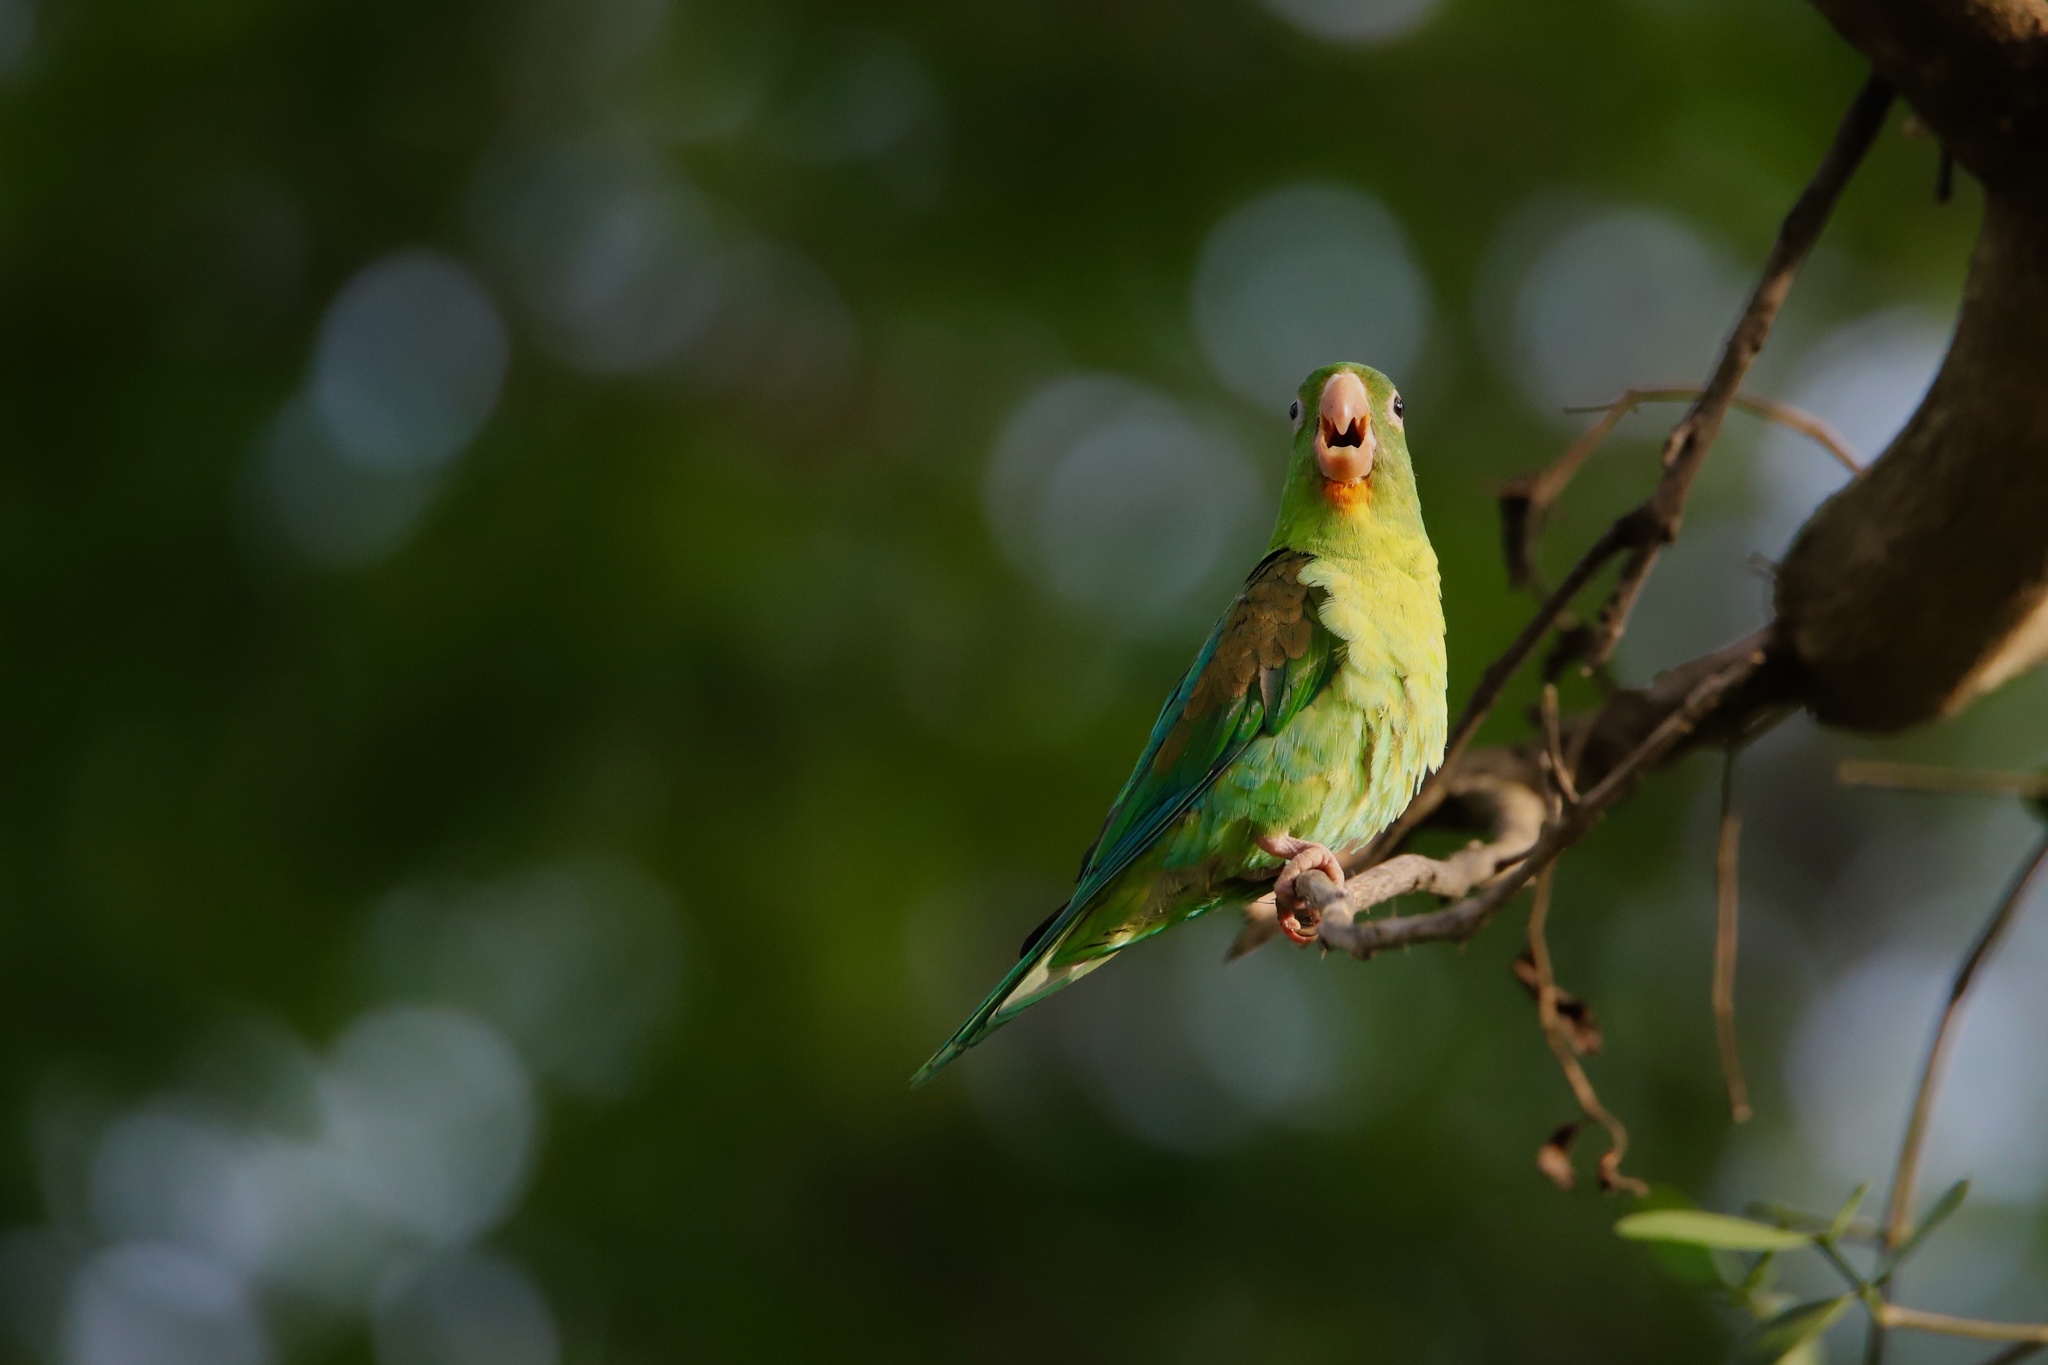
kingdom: Animalia
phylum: Chordata
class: Aves
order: Psittaciformes
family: Psittacidae
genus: Brotogeris
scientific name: Brotogeris jugularis
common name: Orange-chinned parakeet
